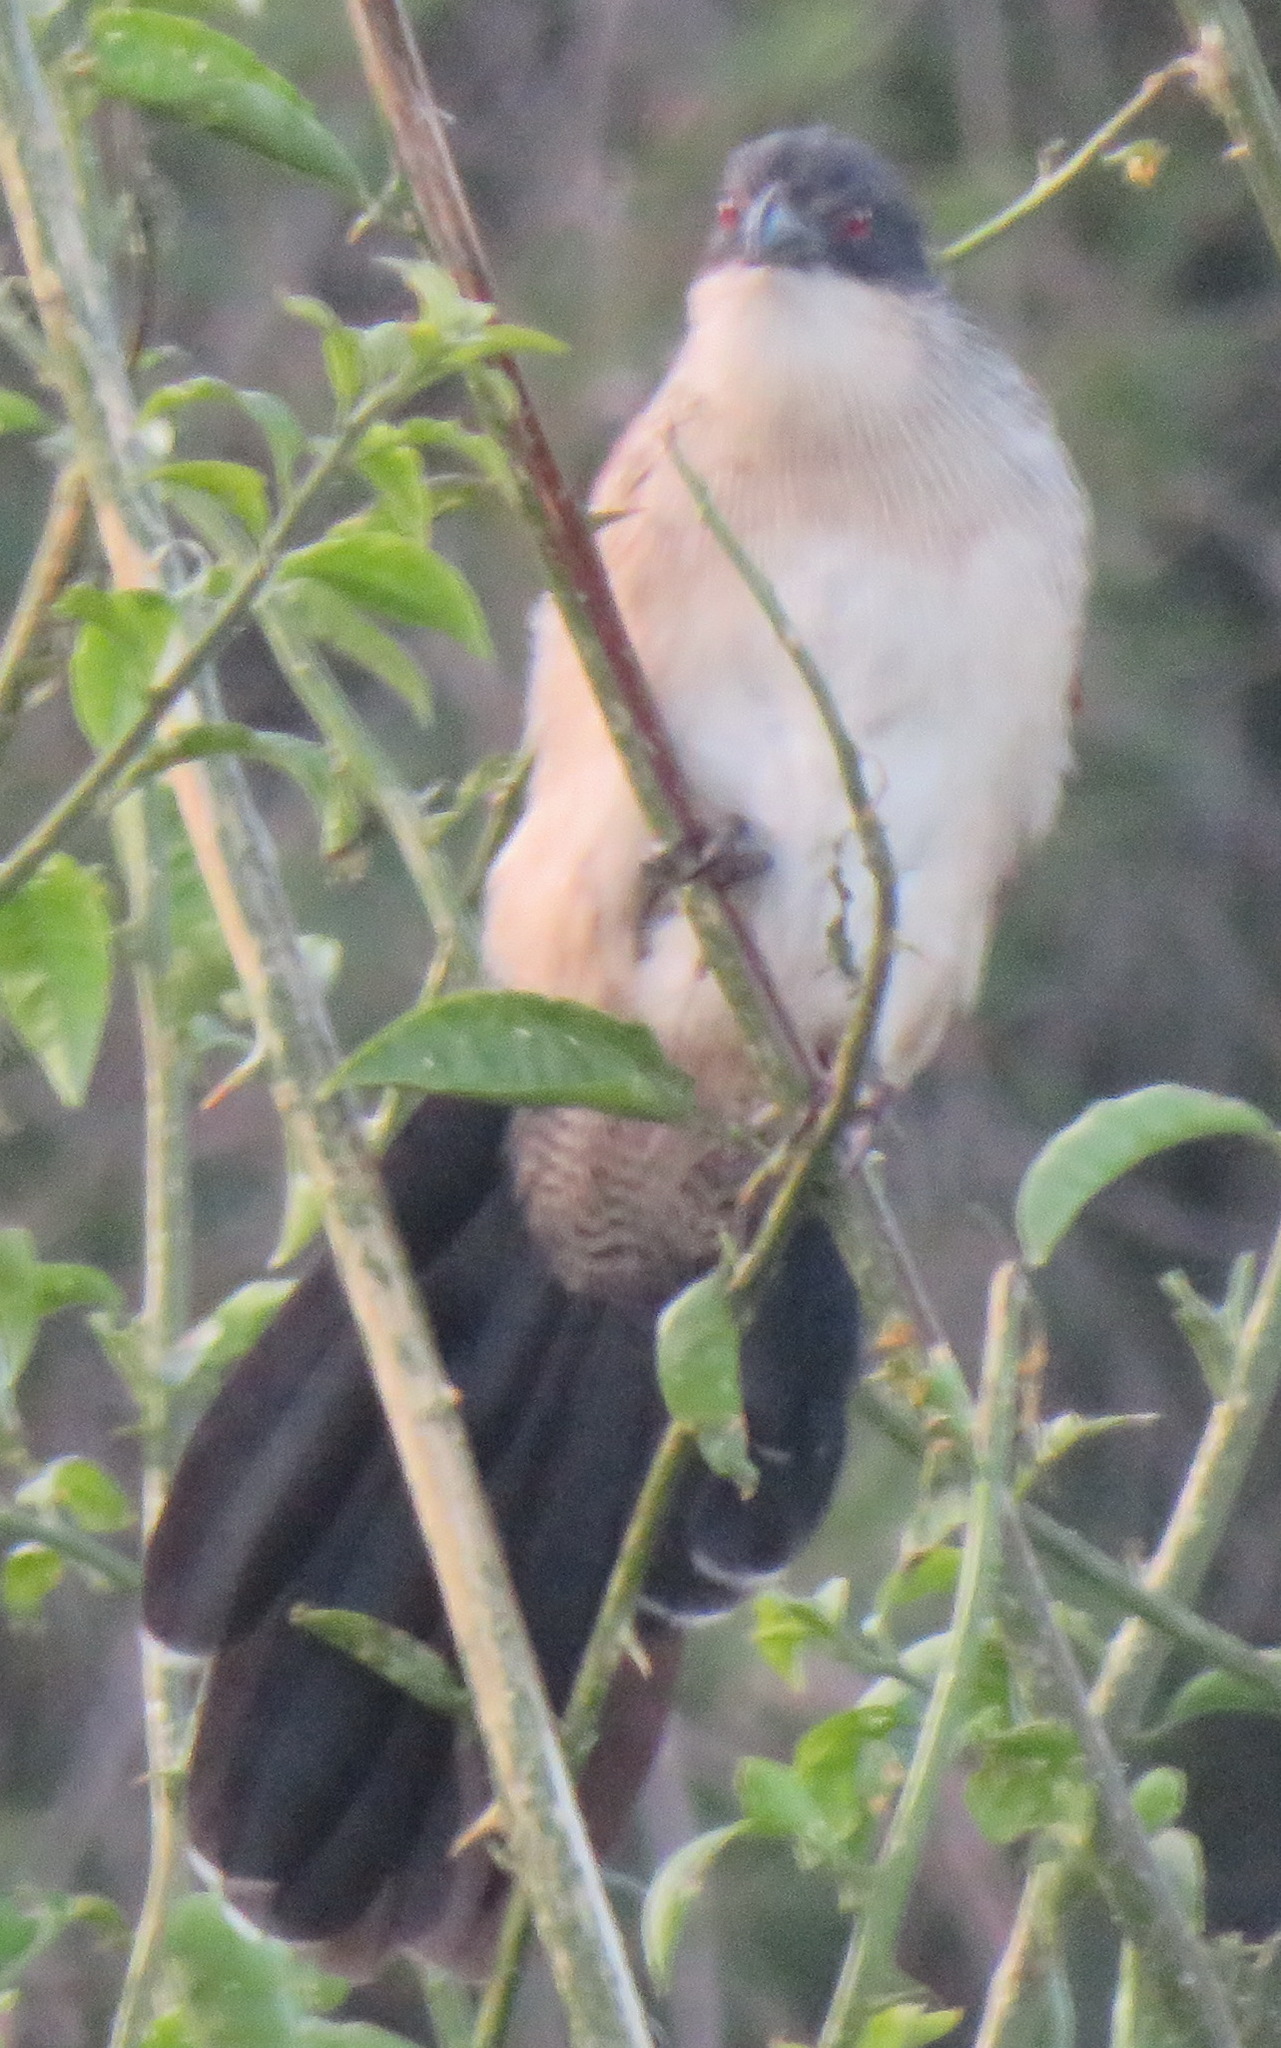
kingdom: Animalia
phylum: Chordata
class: Aves
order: Cuculiformes
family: Cuculidae
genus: Centropus
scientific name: Centropus superciliosus
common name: White-browed coucal
